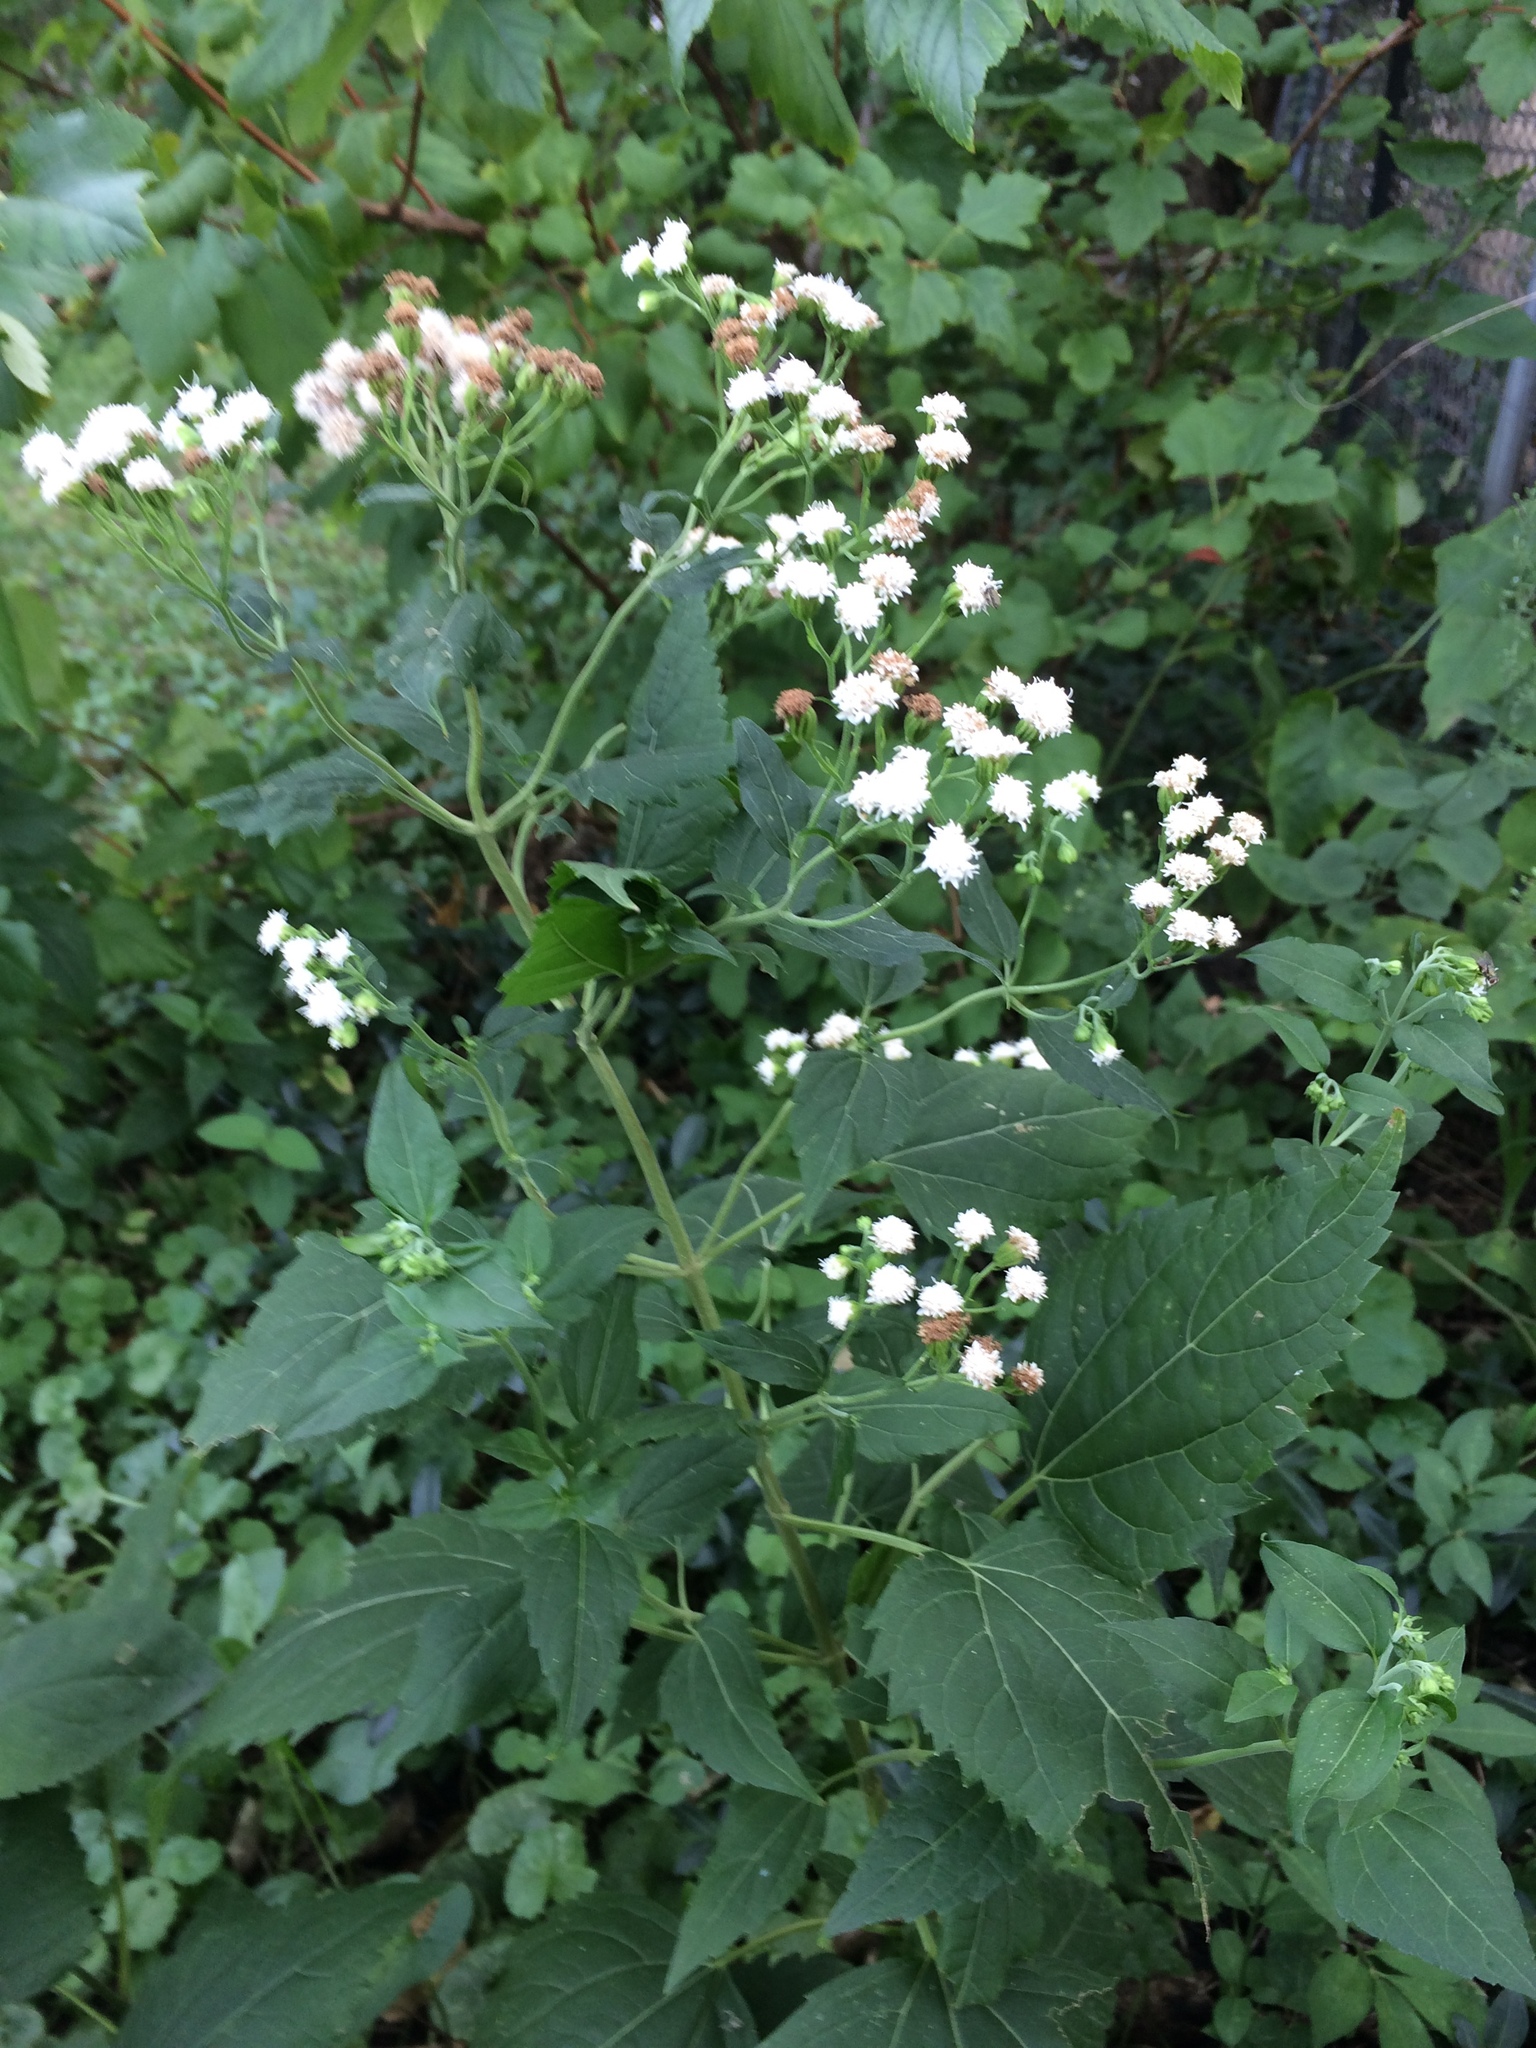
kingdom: Plantae
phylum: Tracheophyta
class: Magnoliopsida
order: Asterales
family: Asteraceae
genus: Ageratina
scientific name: Ageratina altissima
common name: White snakeroot
